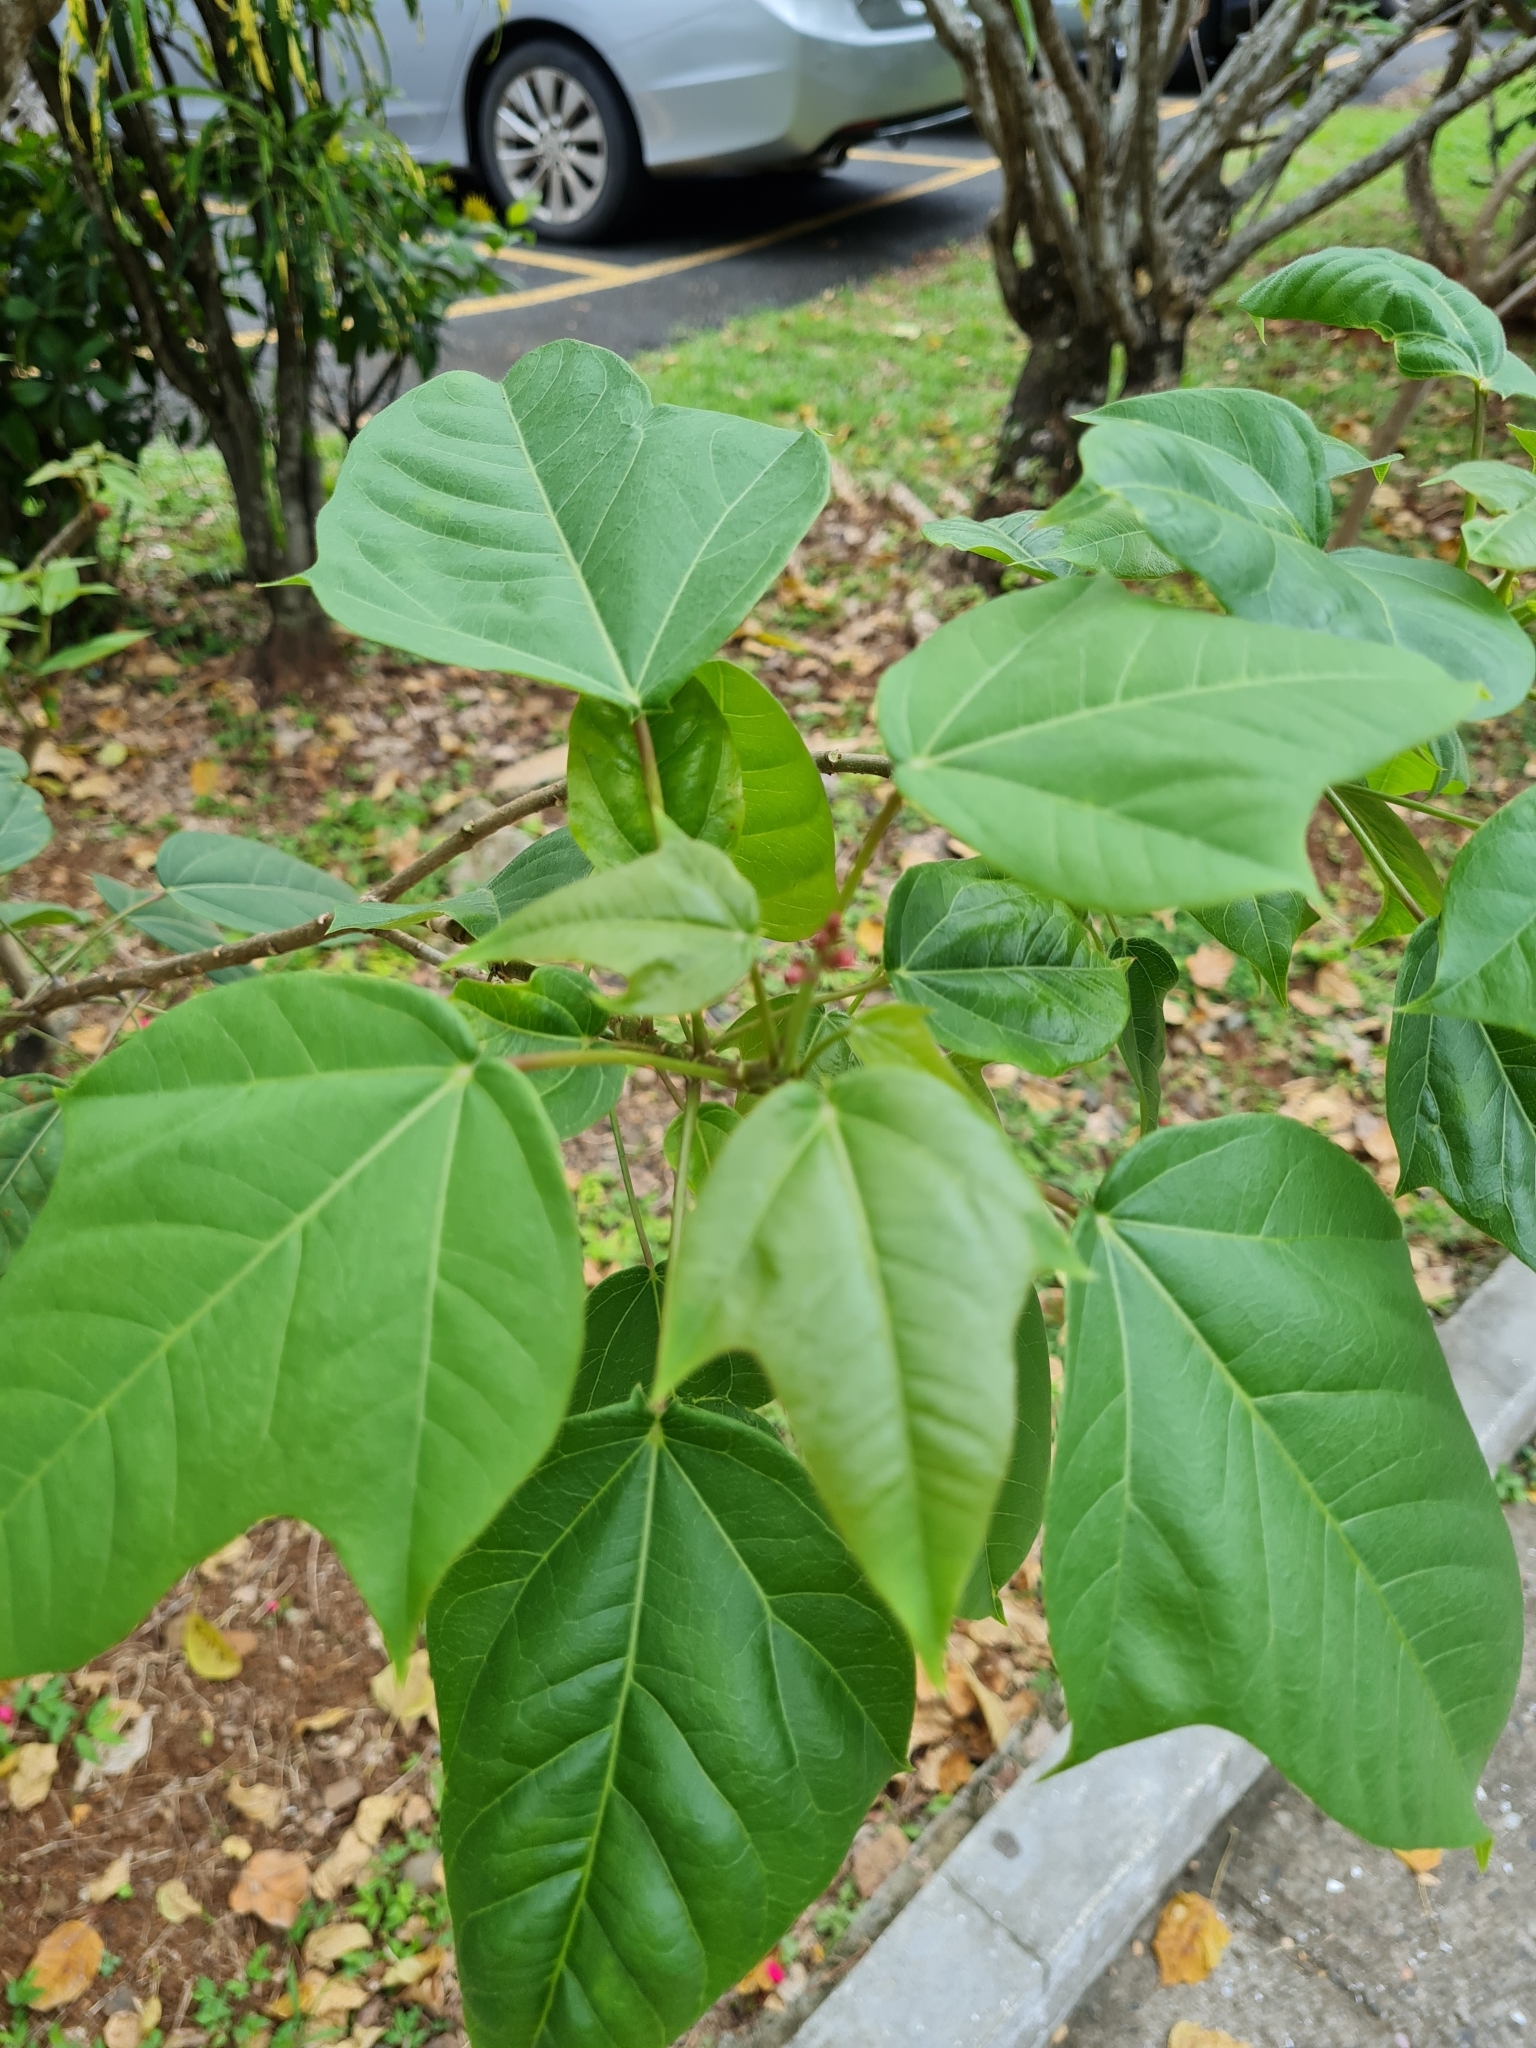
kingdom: Plantae
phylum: Tracheophyta
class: Magnoliopsida
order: Malpighiales
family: Euphorbiaceae
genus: Jatropha
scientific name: Jatropha integerrima
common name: Peregrina
